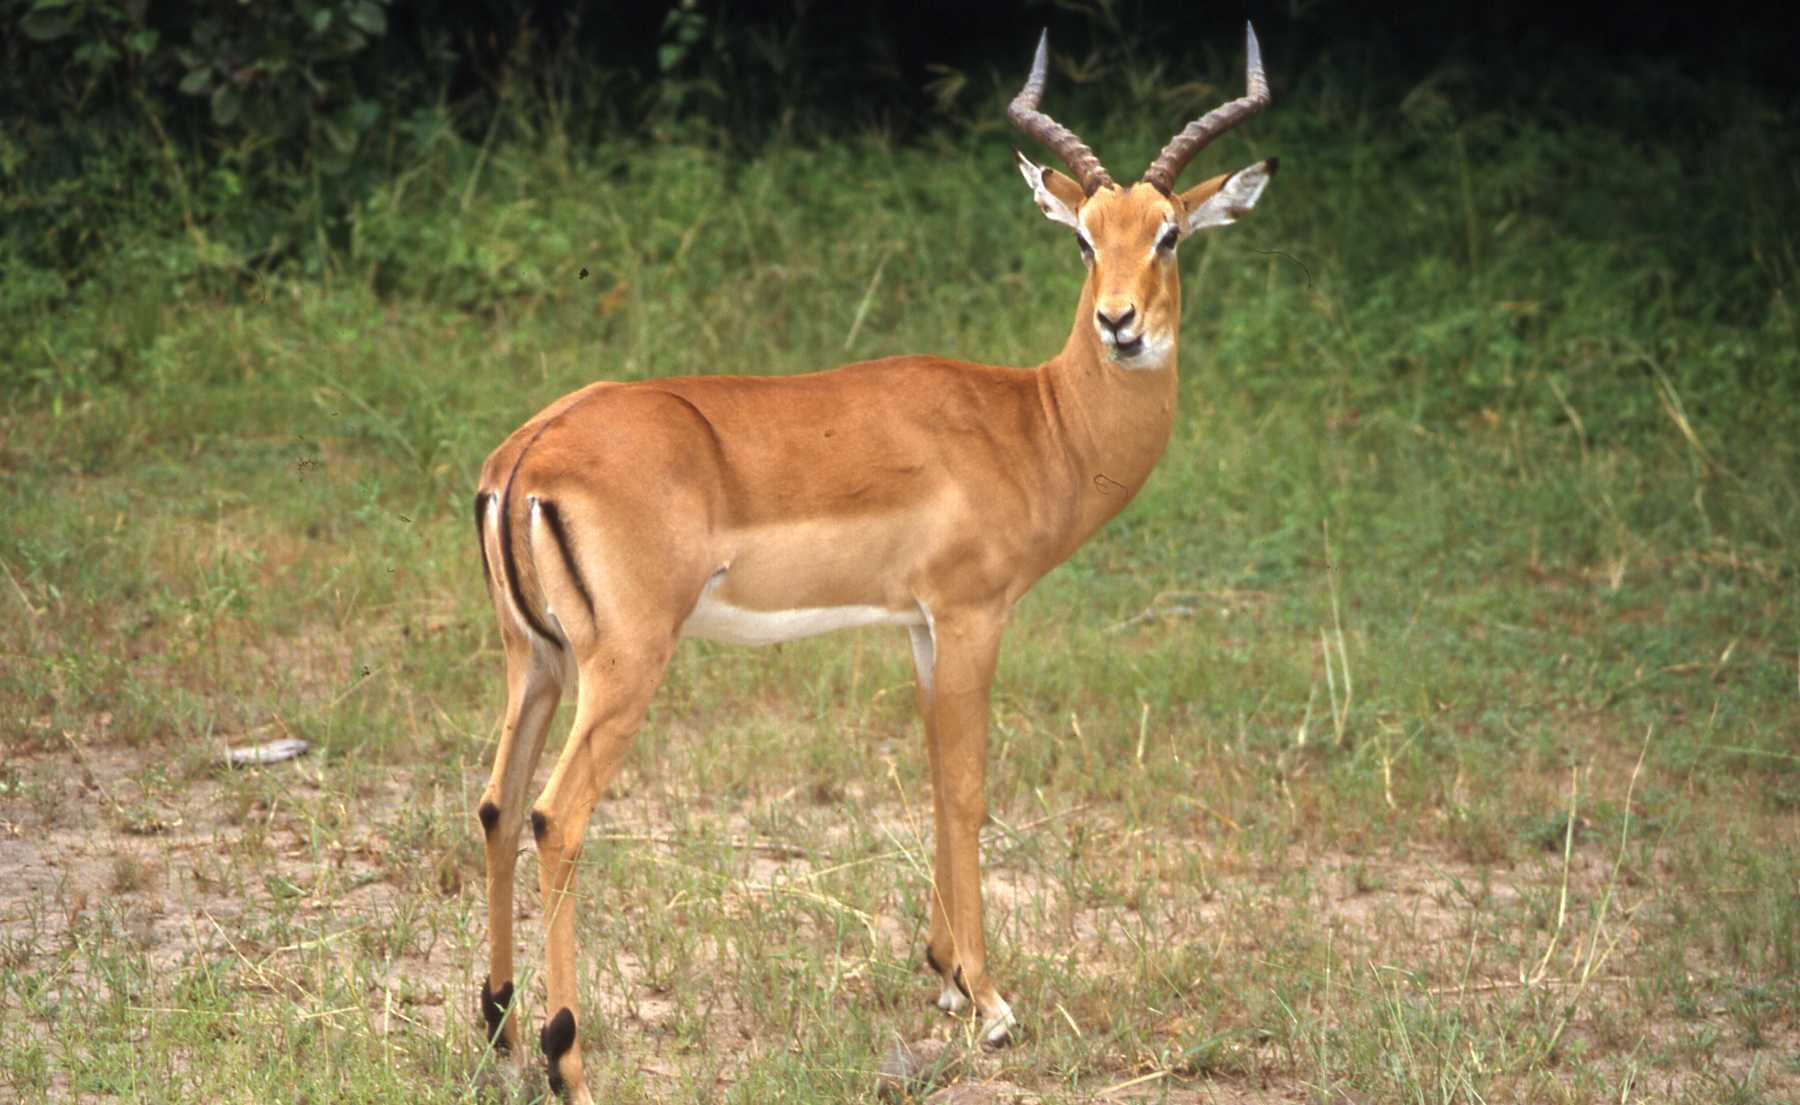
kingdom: Animalia
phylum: Chordata
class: Mammalia
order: Artiodactyla
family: Bovidae
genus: Aepyceros
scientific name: Aepyceros melampus
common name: Impala
